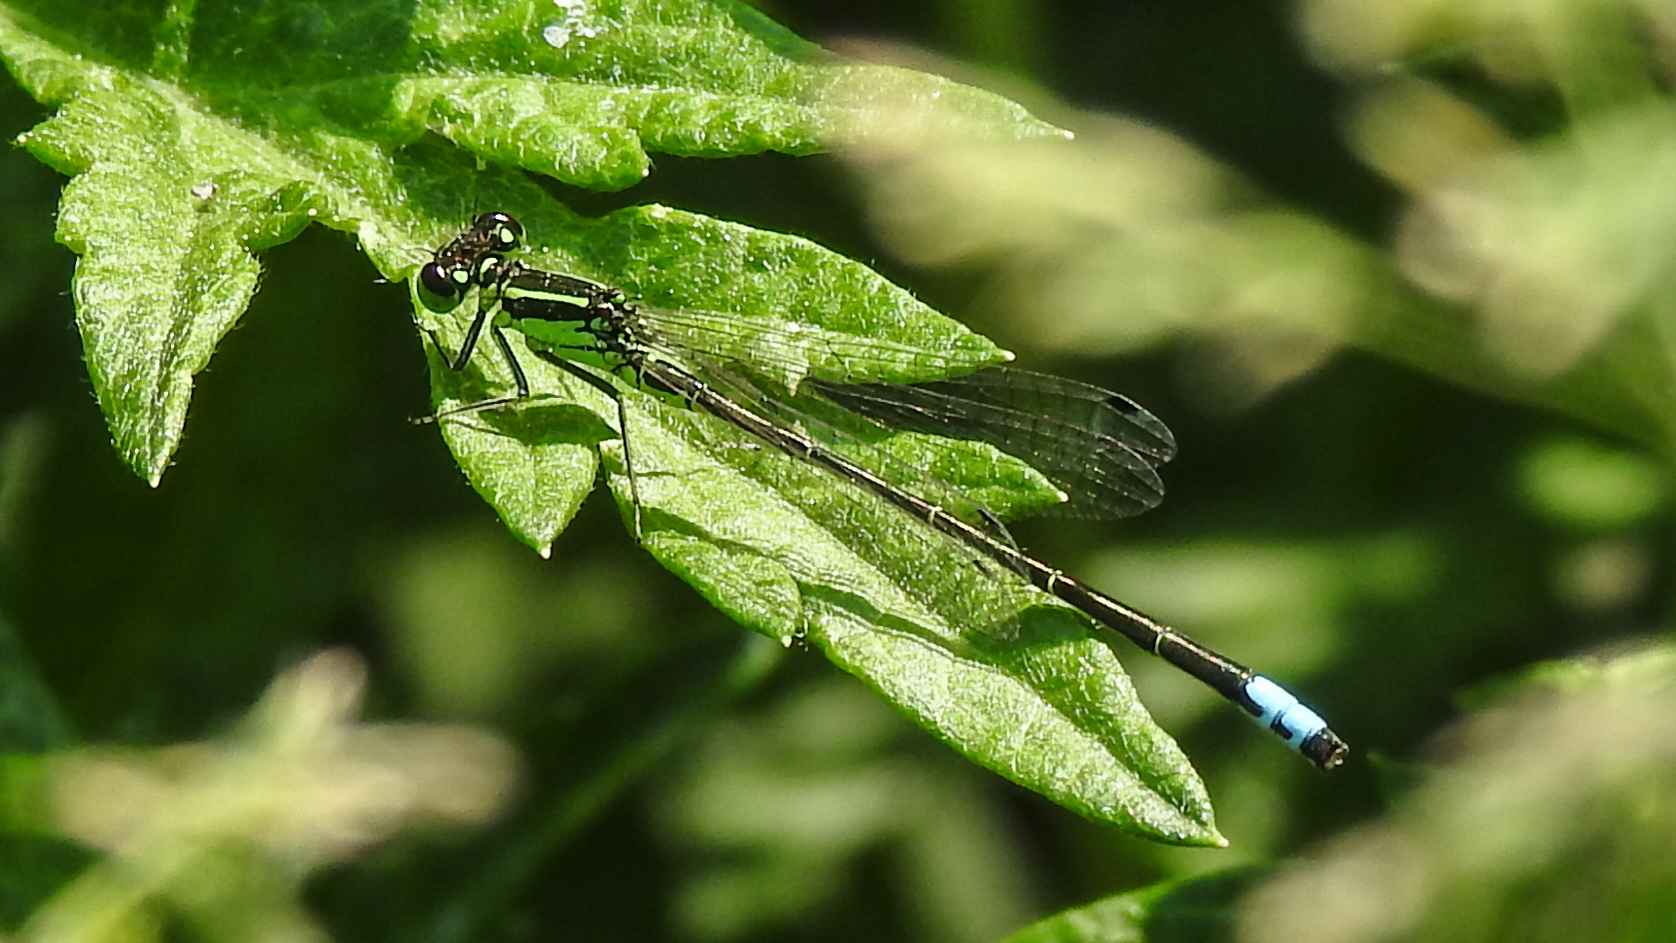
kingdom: Animalia
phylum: Arthropoda
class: Insecta
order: Odonata
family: Coenagrionidae
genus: Ischnura
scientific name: Ischnura verticalis
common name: Eastern forktail
